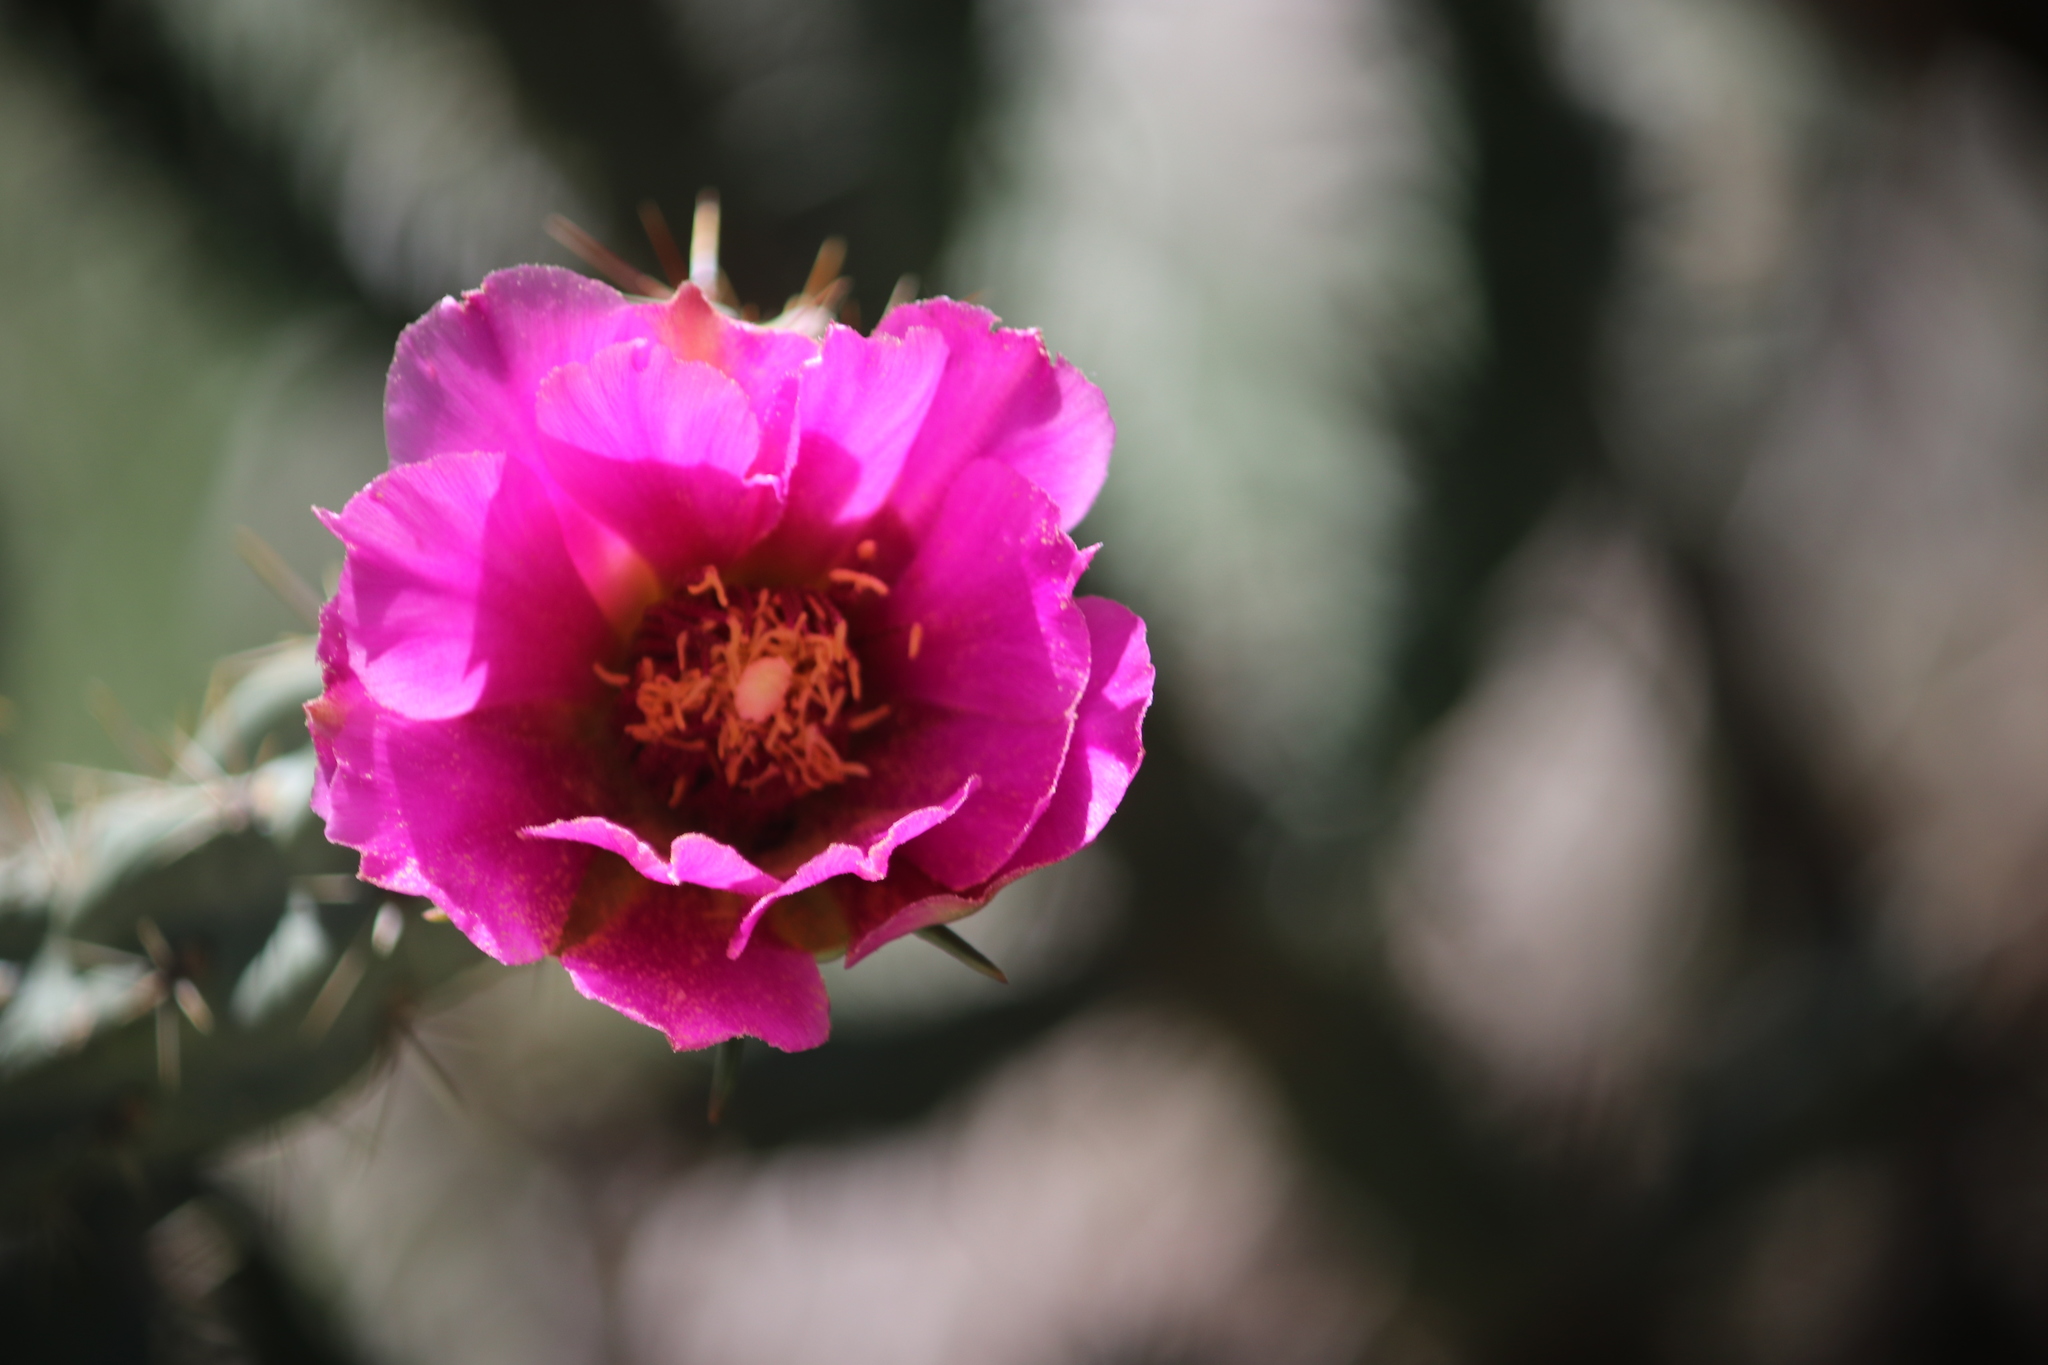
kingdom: Plantae
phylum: Tracheophyta
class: Magnoliopsida
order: Caryophyllales
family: Cactaceae
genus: Cylindropuntia
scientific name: Cylindropuntia imbricata
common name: Candelabrum cactus
